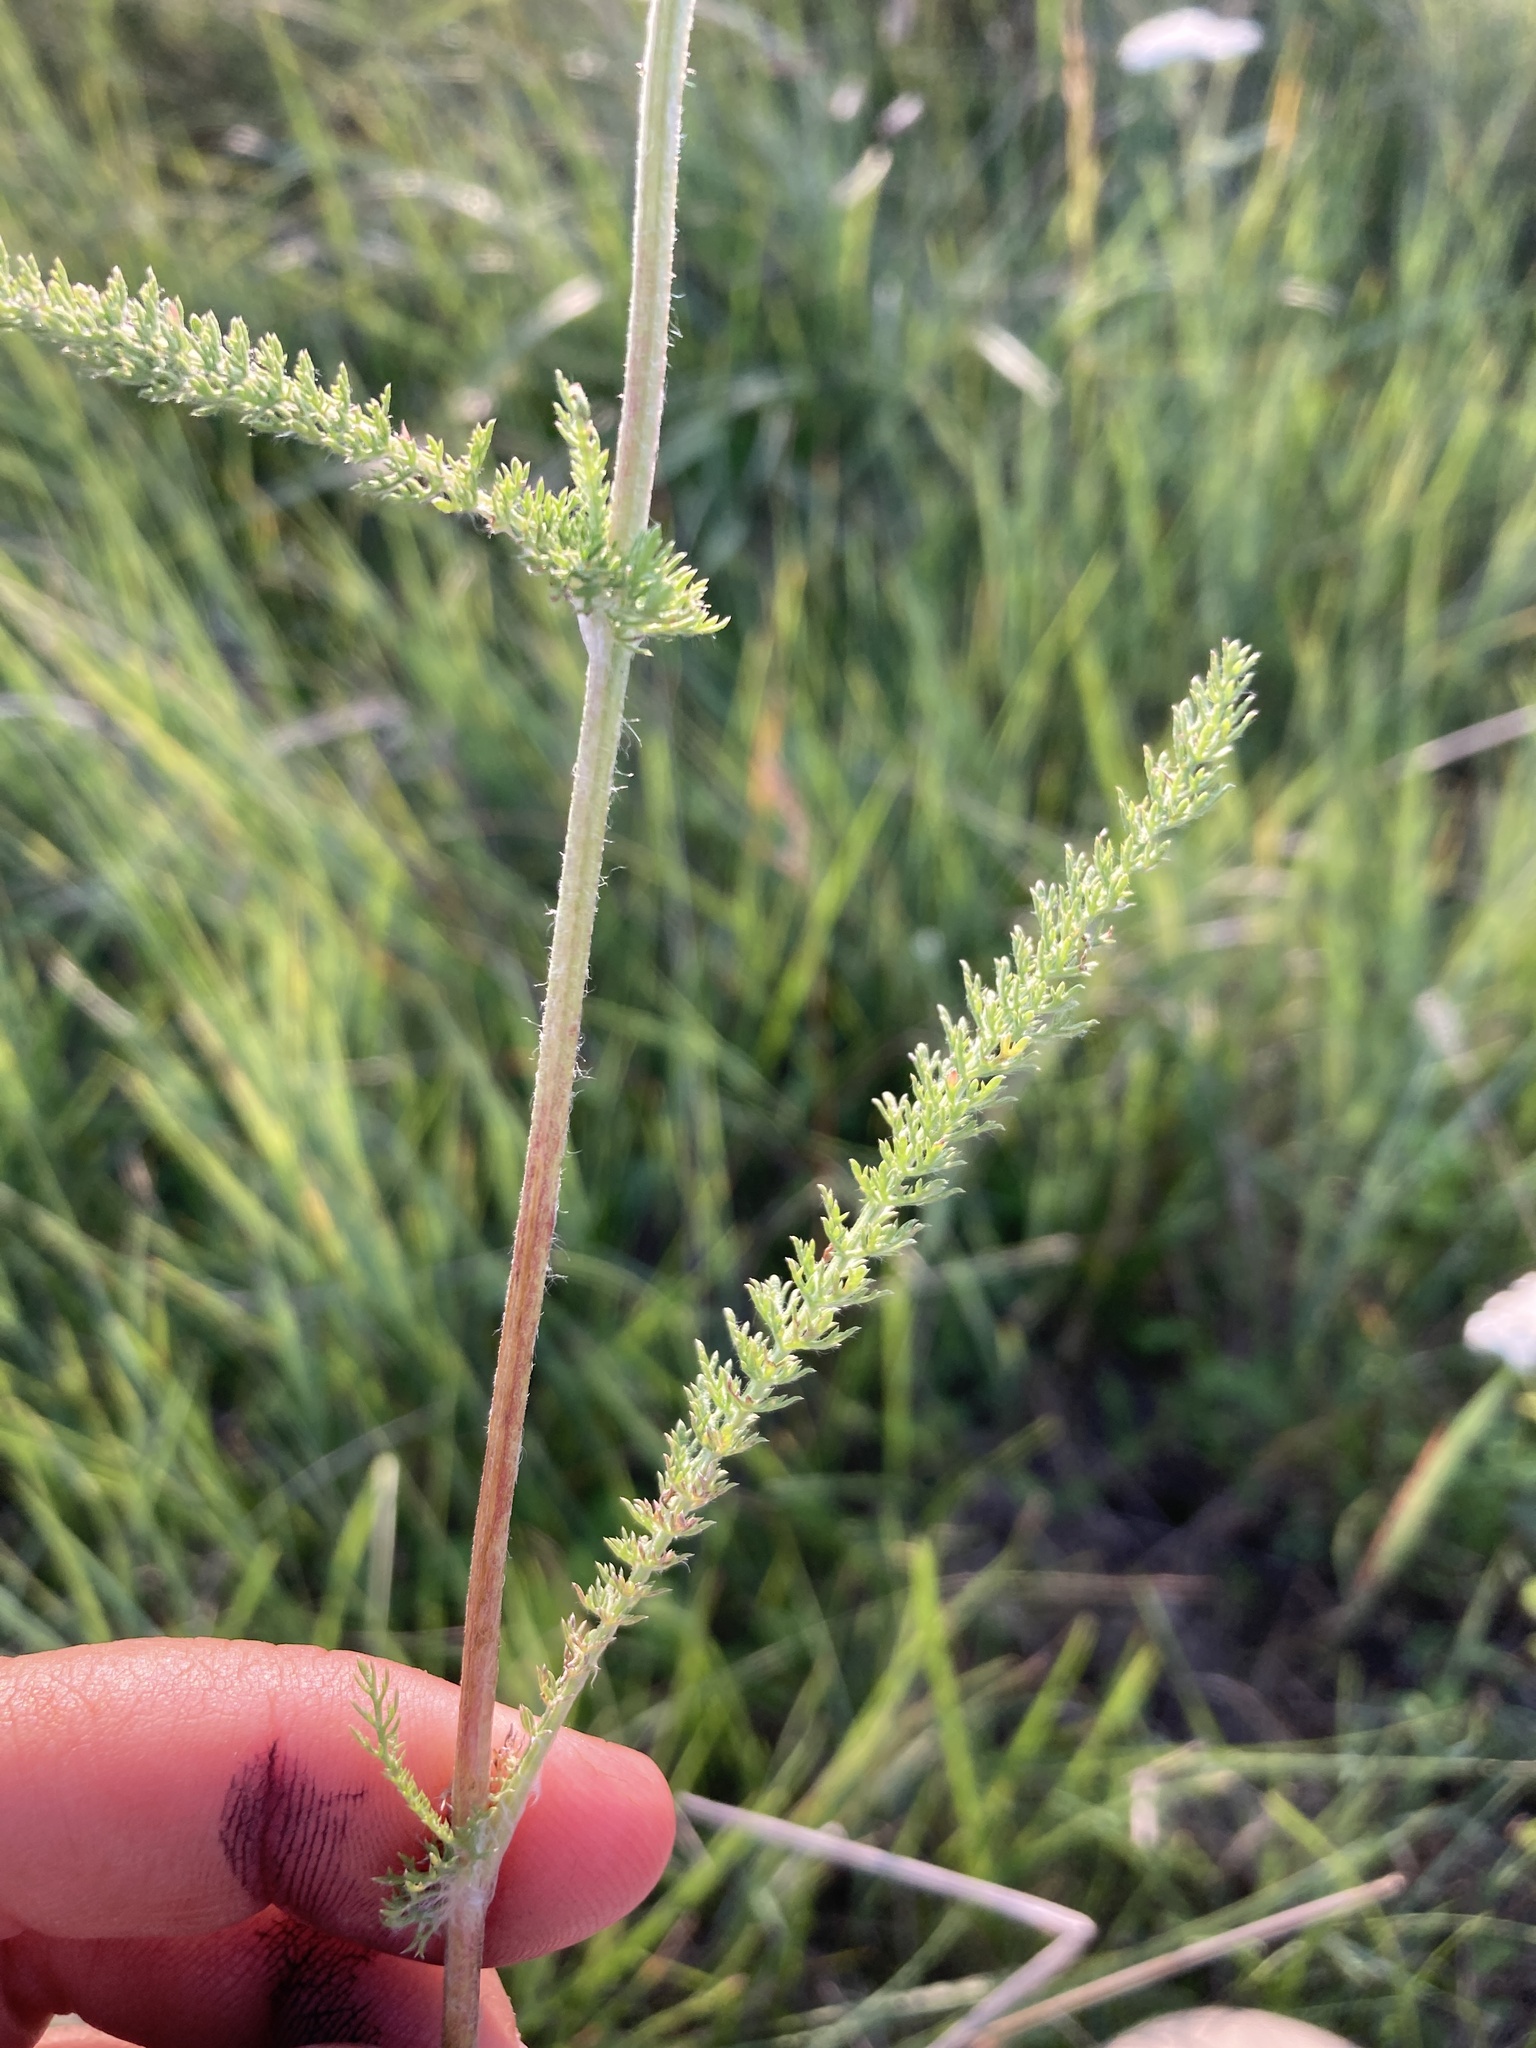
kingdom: Plantae
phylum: Tracheophyta
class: Magnoliopsida
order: Asterales
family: Asteraceae
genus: Achillea
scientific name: Achillea millefolium
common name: Yarrow
